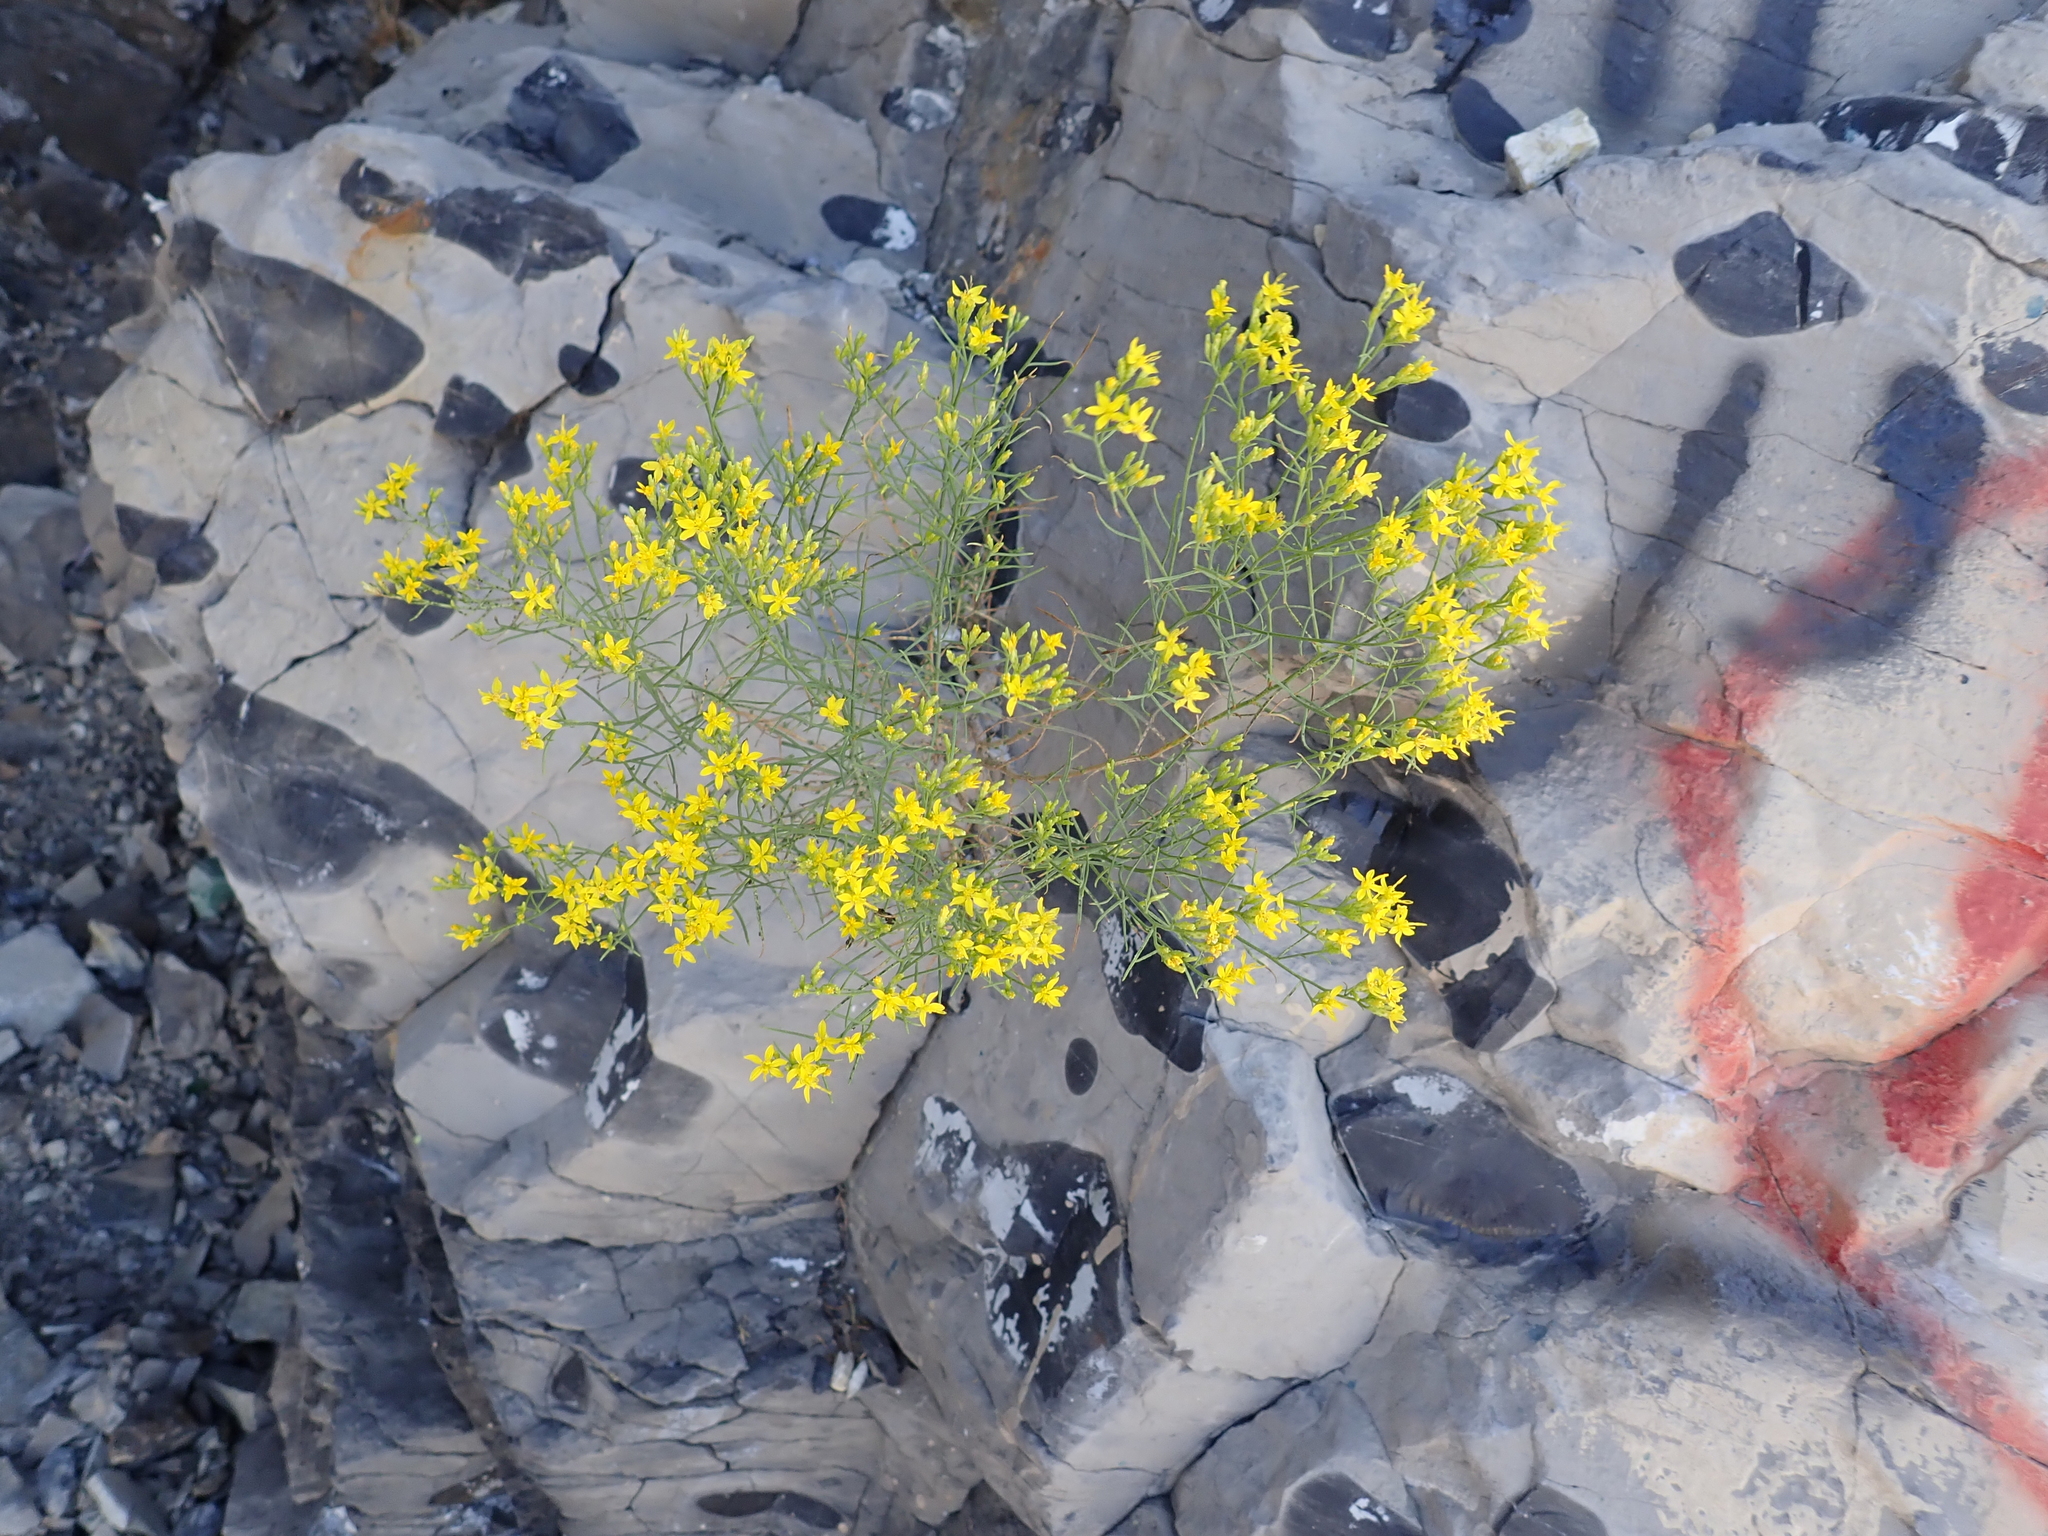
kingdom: Plantae
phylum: Tracheophyta
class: Magnoliopsida
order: Asterales
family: Asteraceae
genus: Gutierrezia
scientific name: Gutierrezia sarothrae
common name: Broom snakeweed
